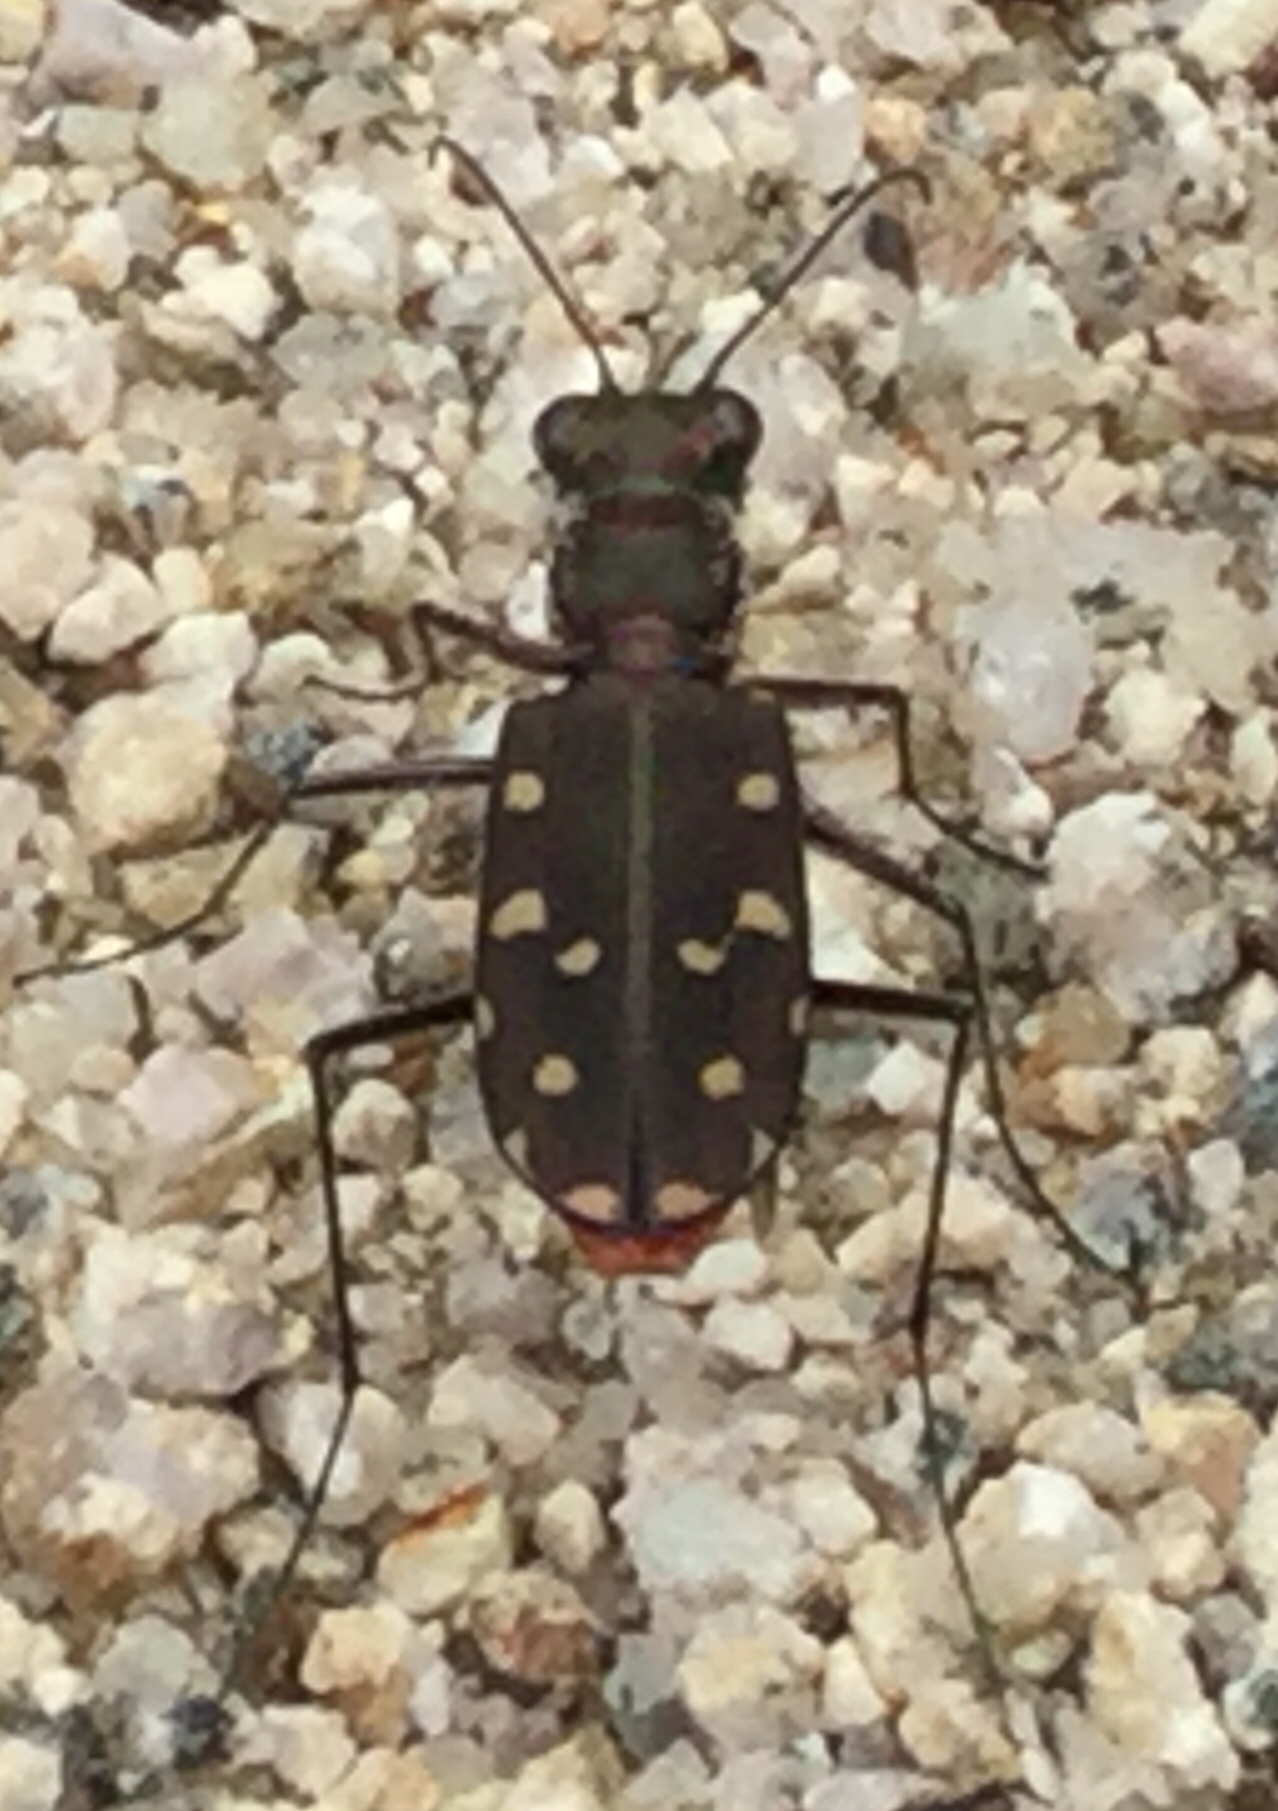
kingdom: Animalia
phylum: Arthropoda
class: Insecta
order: Coleoptera
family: Carabidae
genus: Cicindela
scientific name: Cicindela sedecimpunctata
